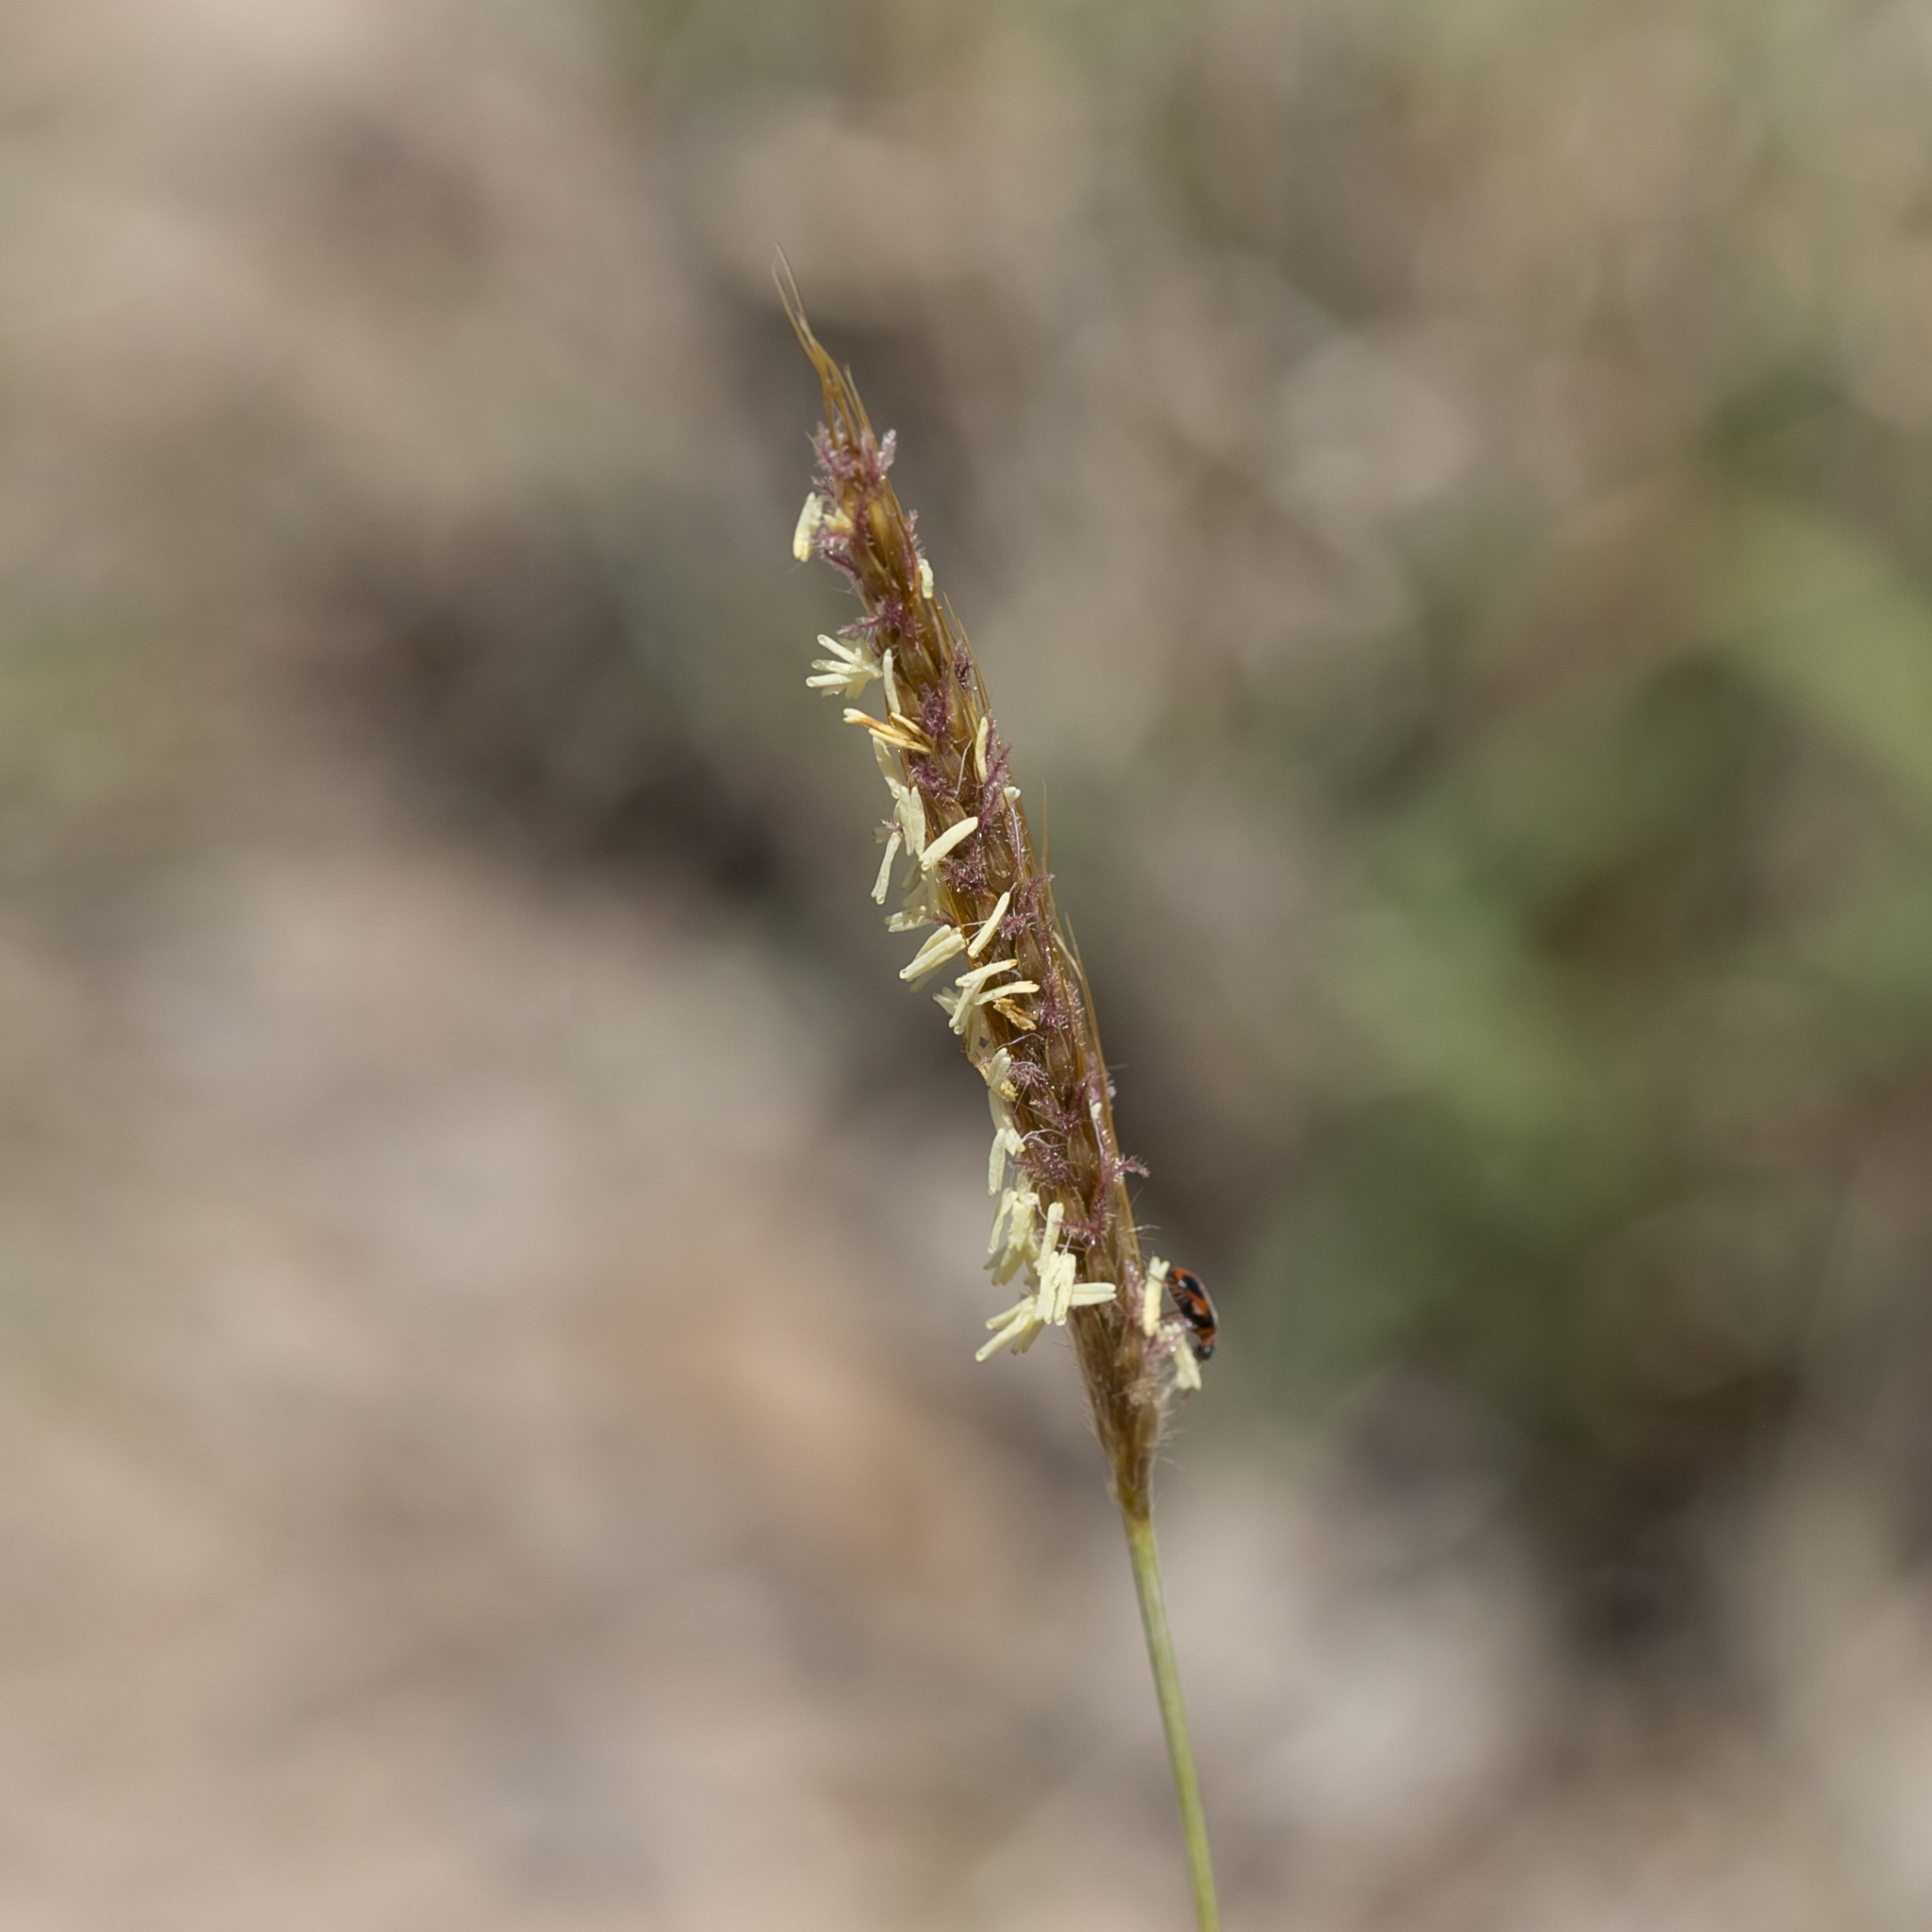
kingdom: Plantae
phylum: Tracheophyta
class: Liliopsida
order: Poales
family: Poaceae
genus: Eulalia
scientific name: Eulalia aurea
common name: Silky browntop
